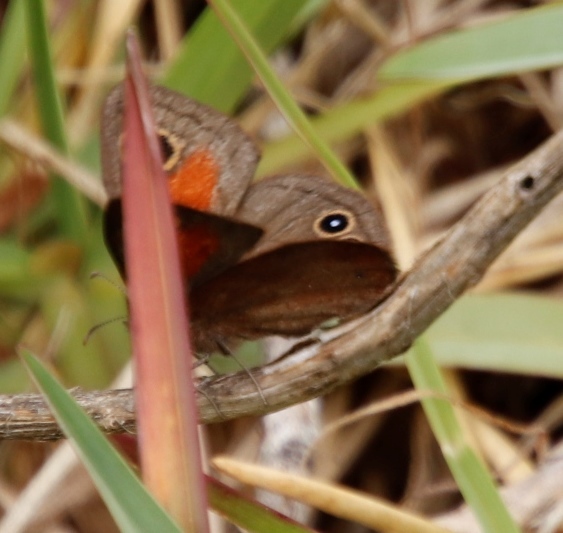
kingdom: Animalia
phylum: Arthropoda
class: Insecta
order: Lepidoptera
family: Nymphalidae
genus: Cassionympha
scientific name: Cassionympha cassius
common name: Rainforest brown
